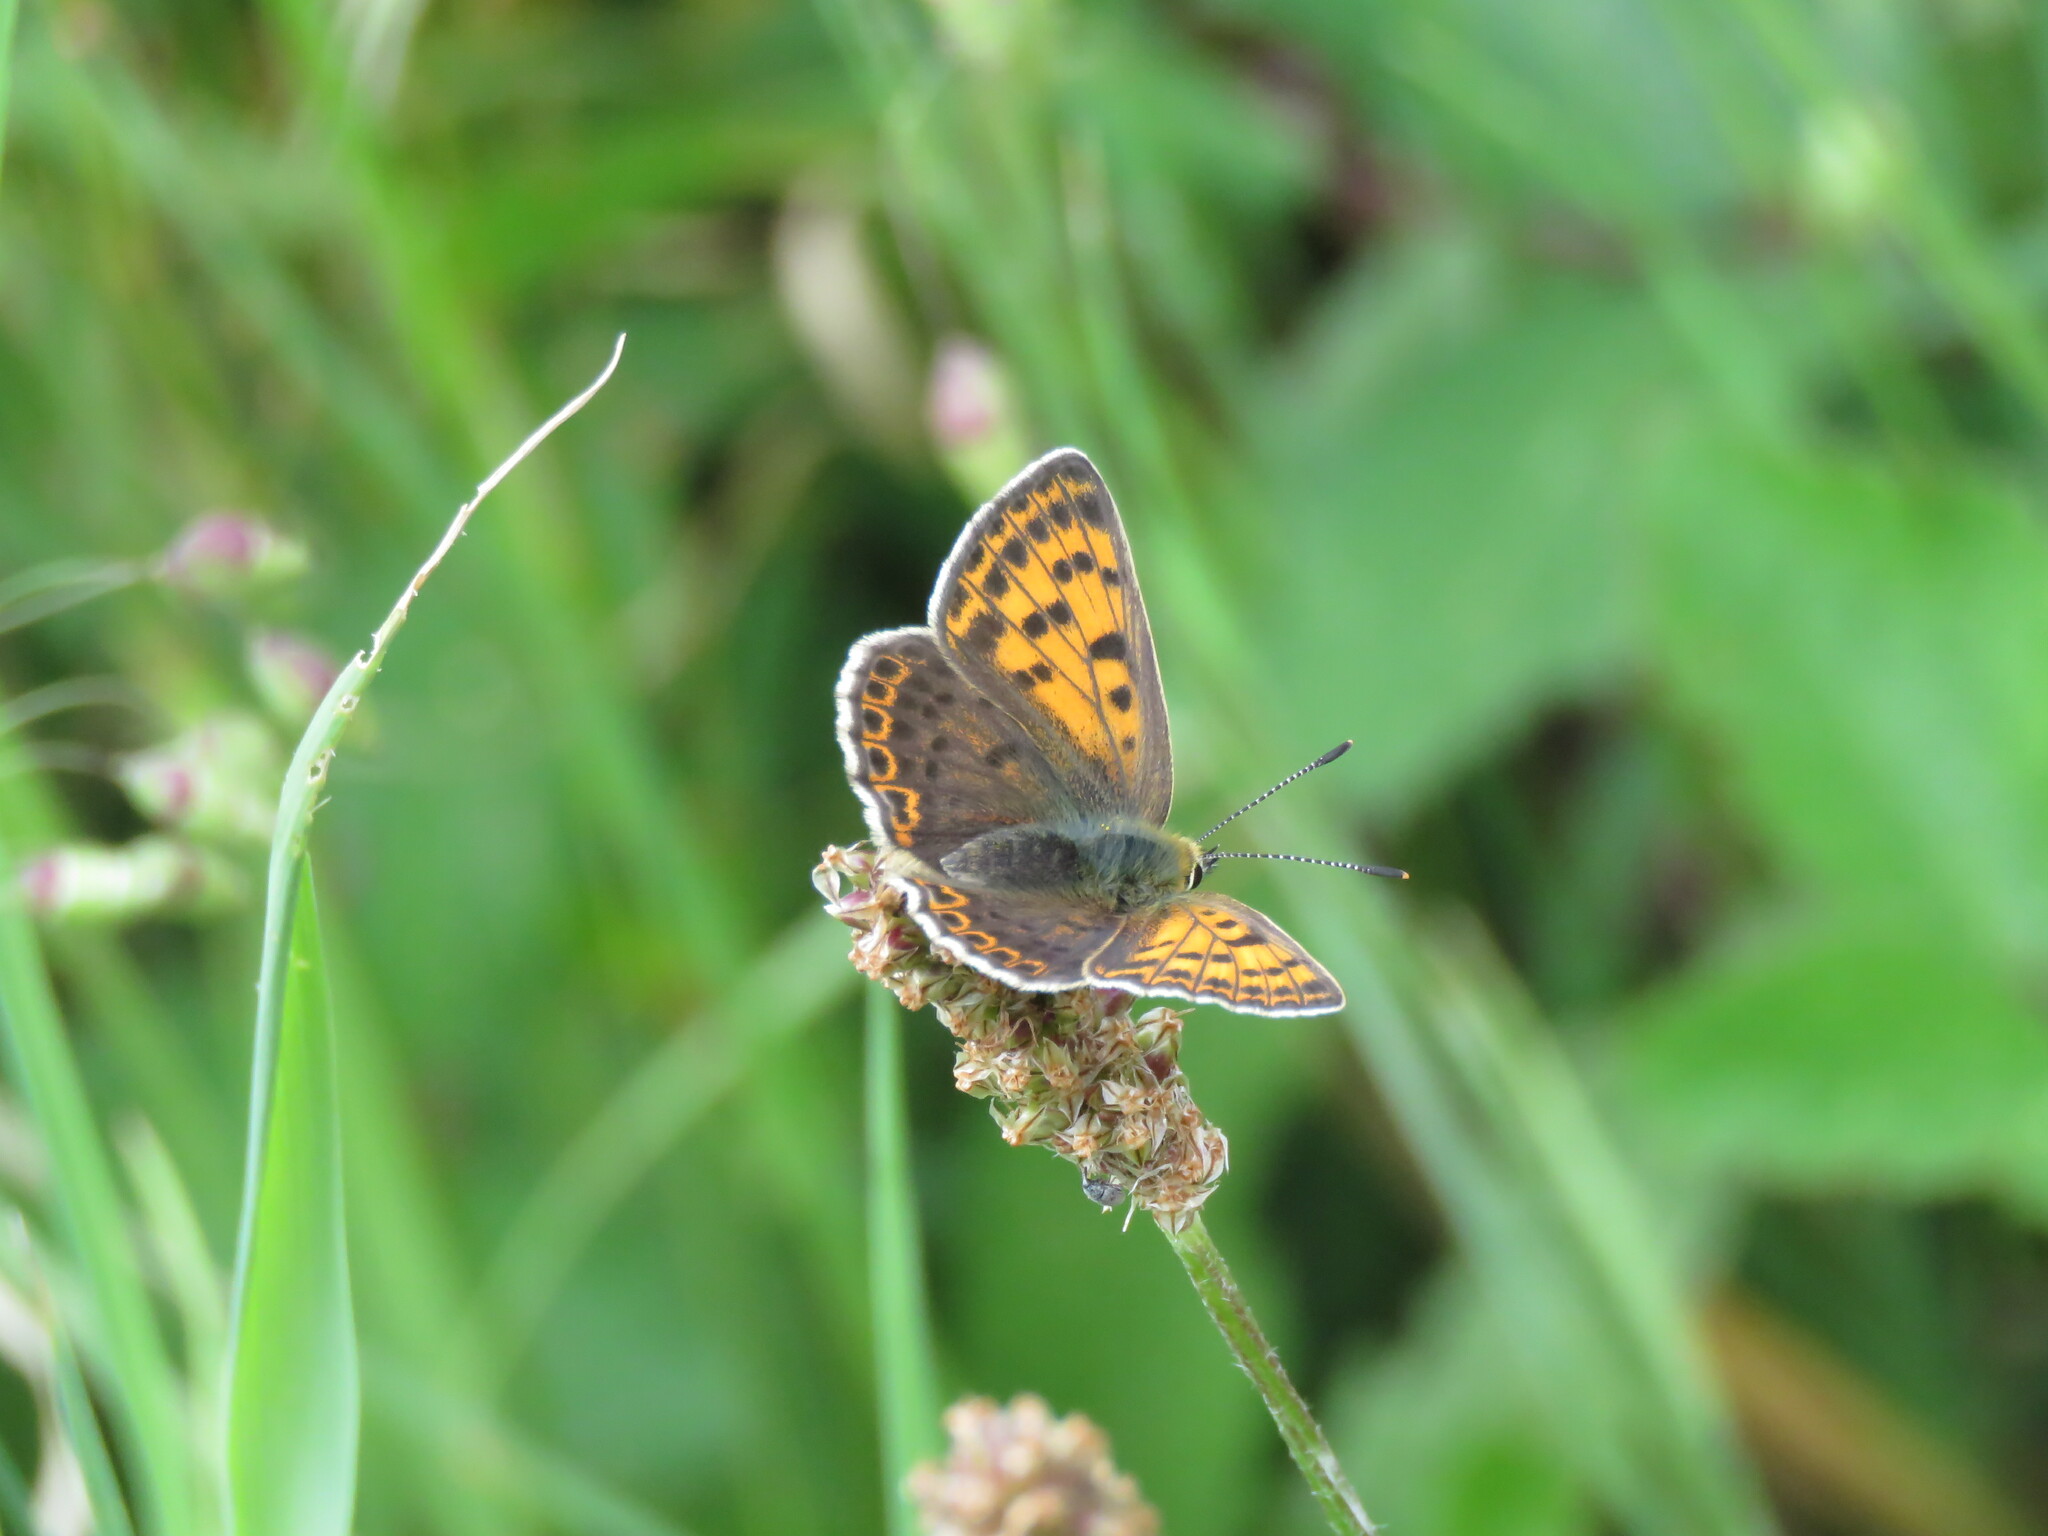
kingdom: Animalia
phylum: Arthropoda
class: Insecta
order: Lepidoptera
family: Lycaenidae
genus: Loweia
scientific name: Loweia tityrus
